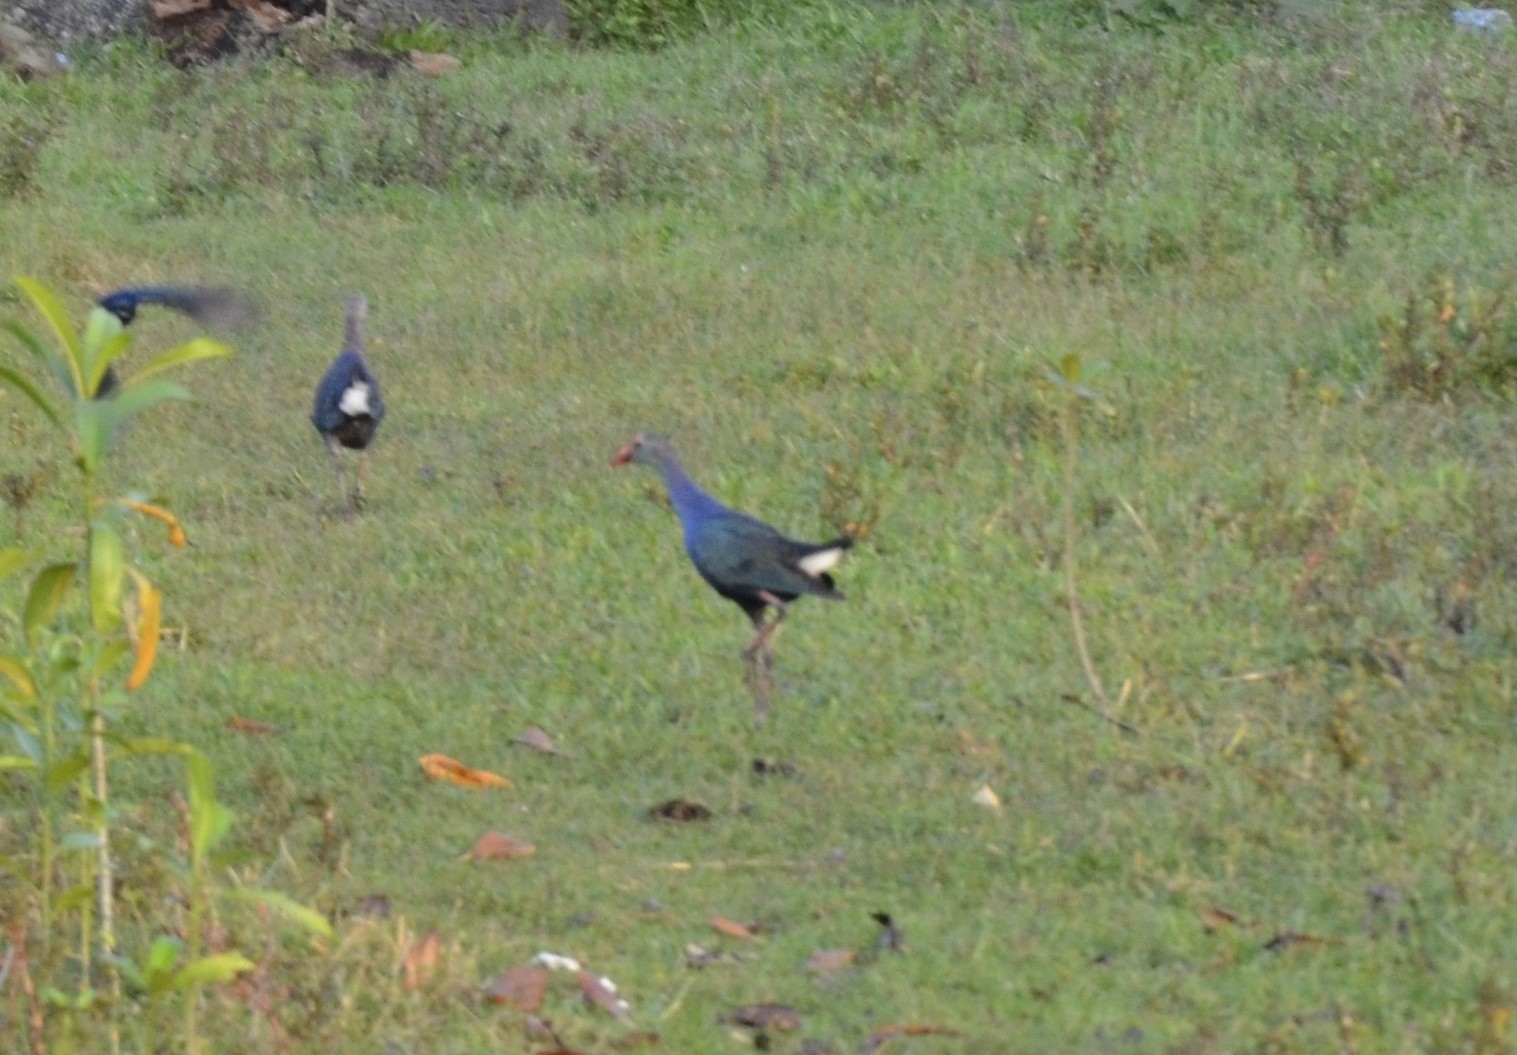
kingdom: Animalia
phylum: Chordata
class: Aves
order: Gruiformes
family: Rallidae
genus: Porphyrio
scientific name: Porphyrio porphyrio
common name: Purple swamphen
